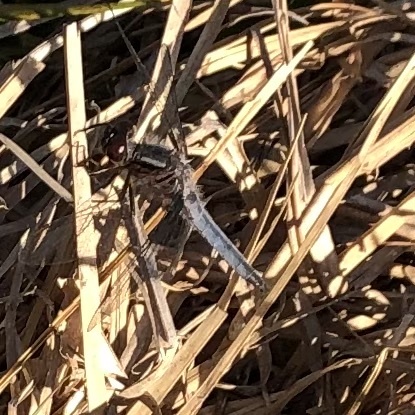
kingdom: Animalia
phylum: Arthropoda
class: Insecta
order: Odonata
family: Libellulidae
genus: Ladona
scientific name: Ladona deplanata
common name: Blue corporal
